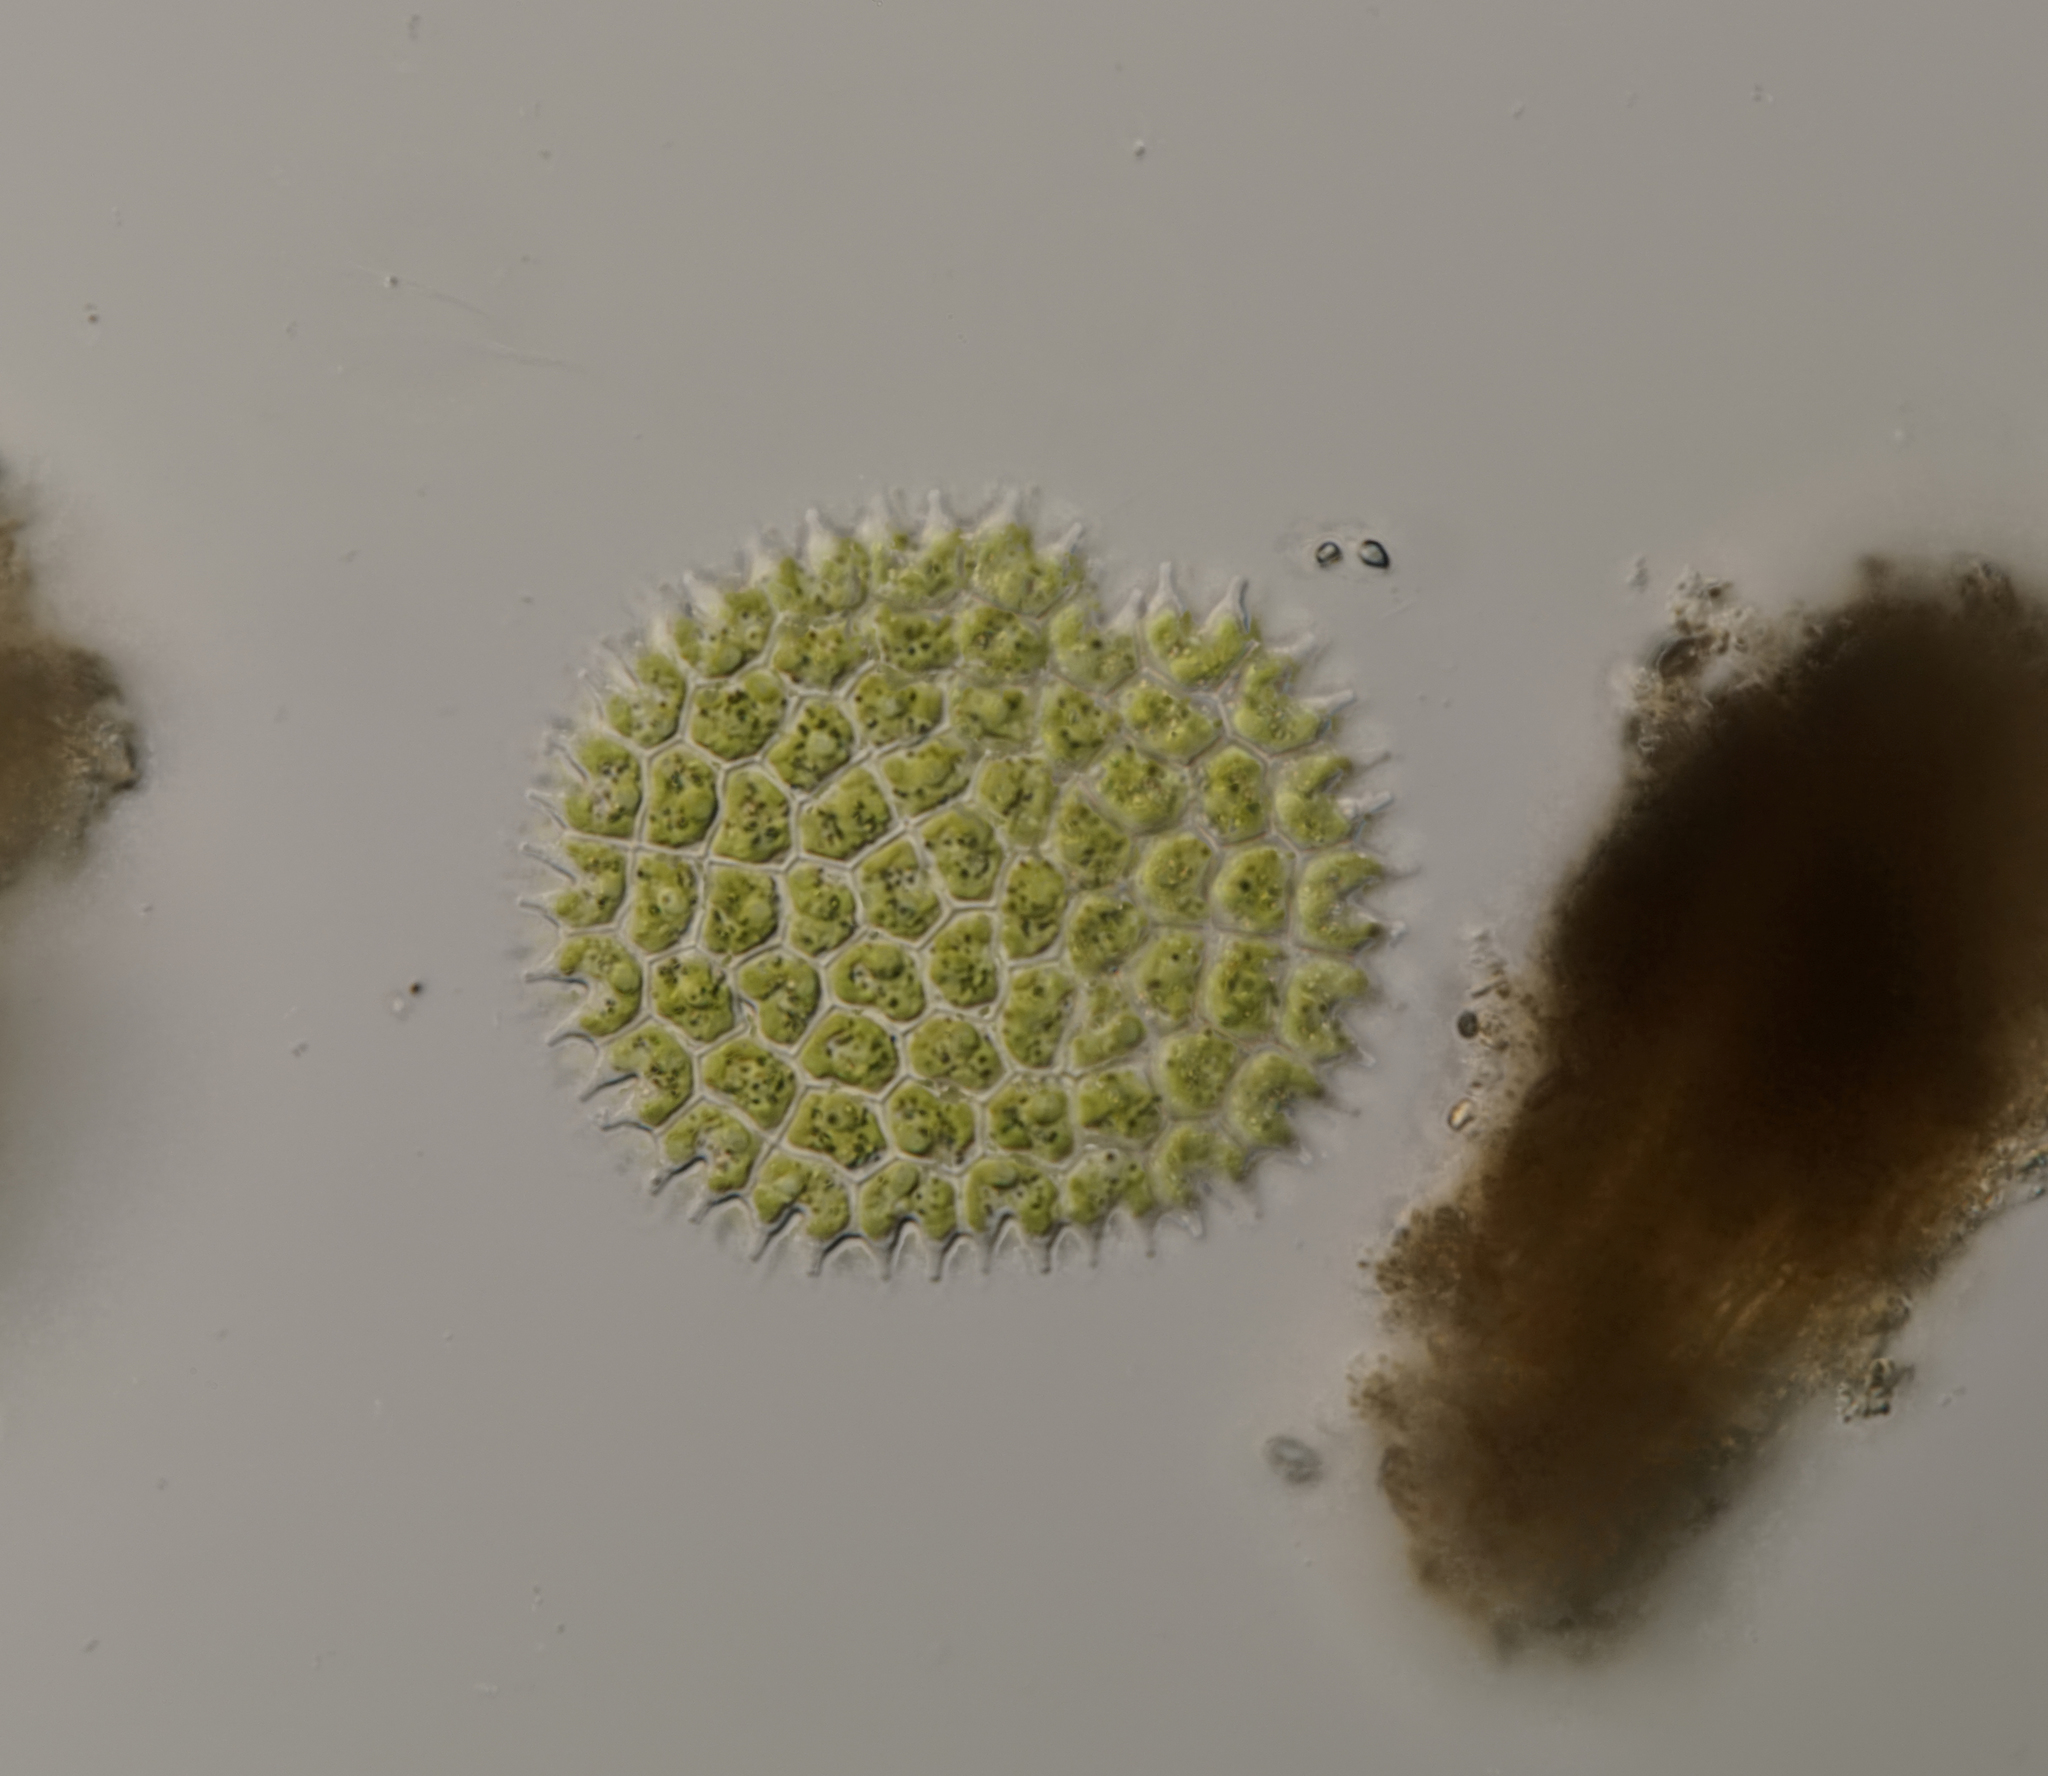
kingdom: Plantae
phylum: Chlorophyta
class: Chlorophyceae
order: Sphaeropleales
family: Hydrodictyaceae
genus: Pseudopediastrum
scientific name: Pseudopediastrum boryanum
